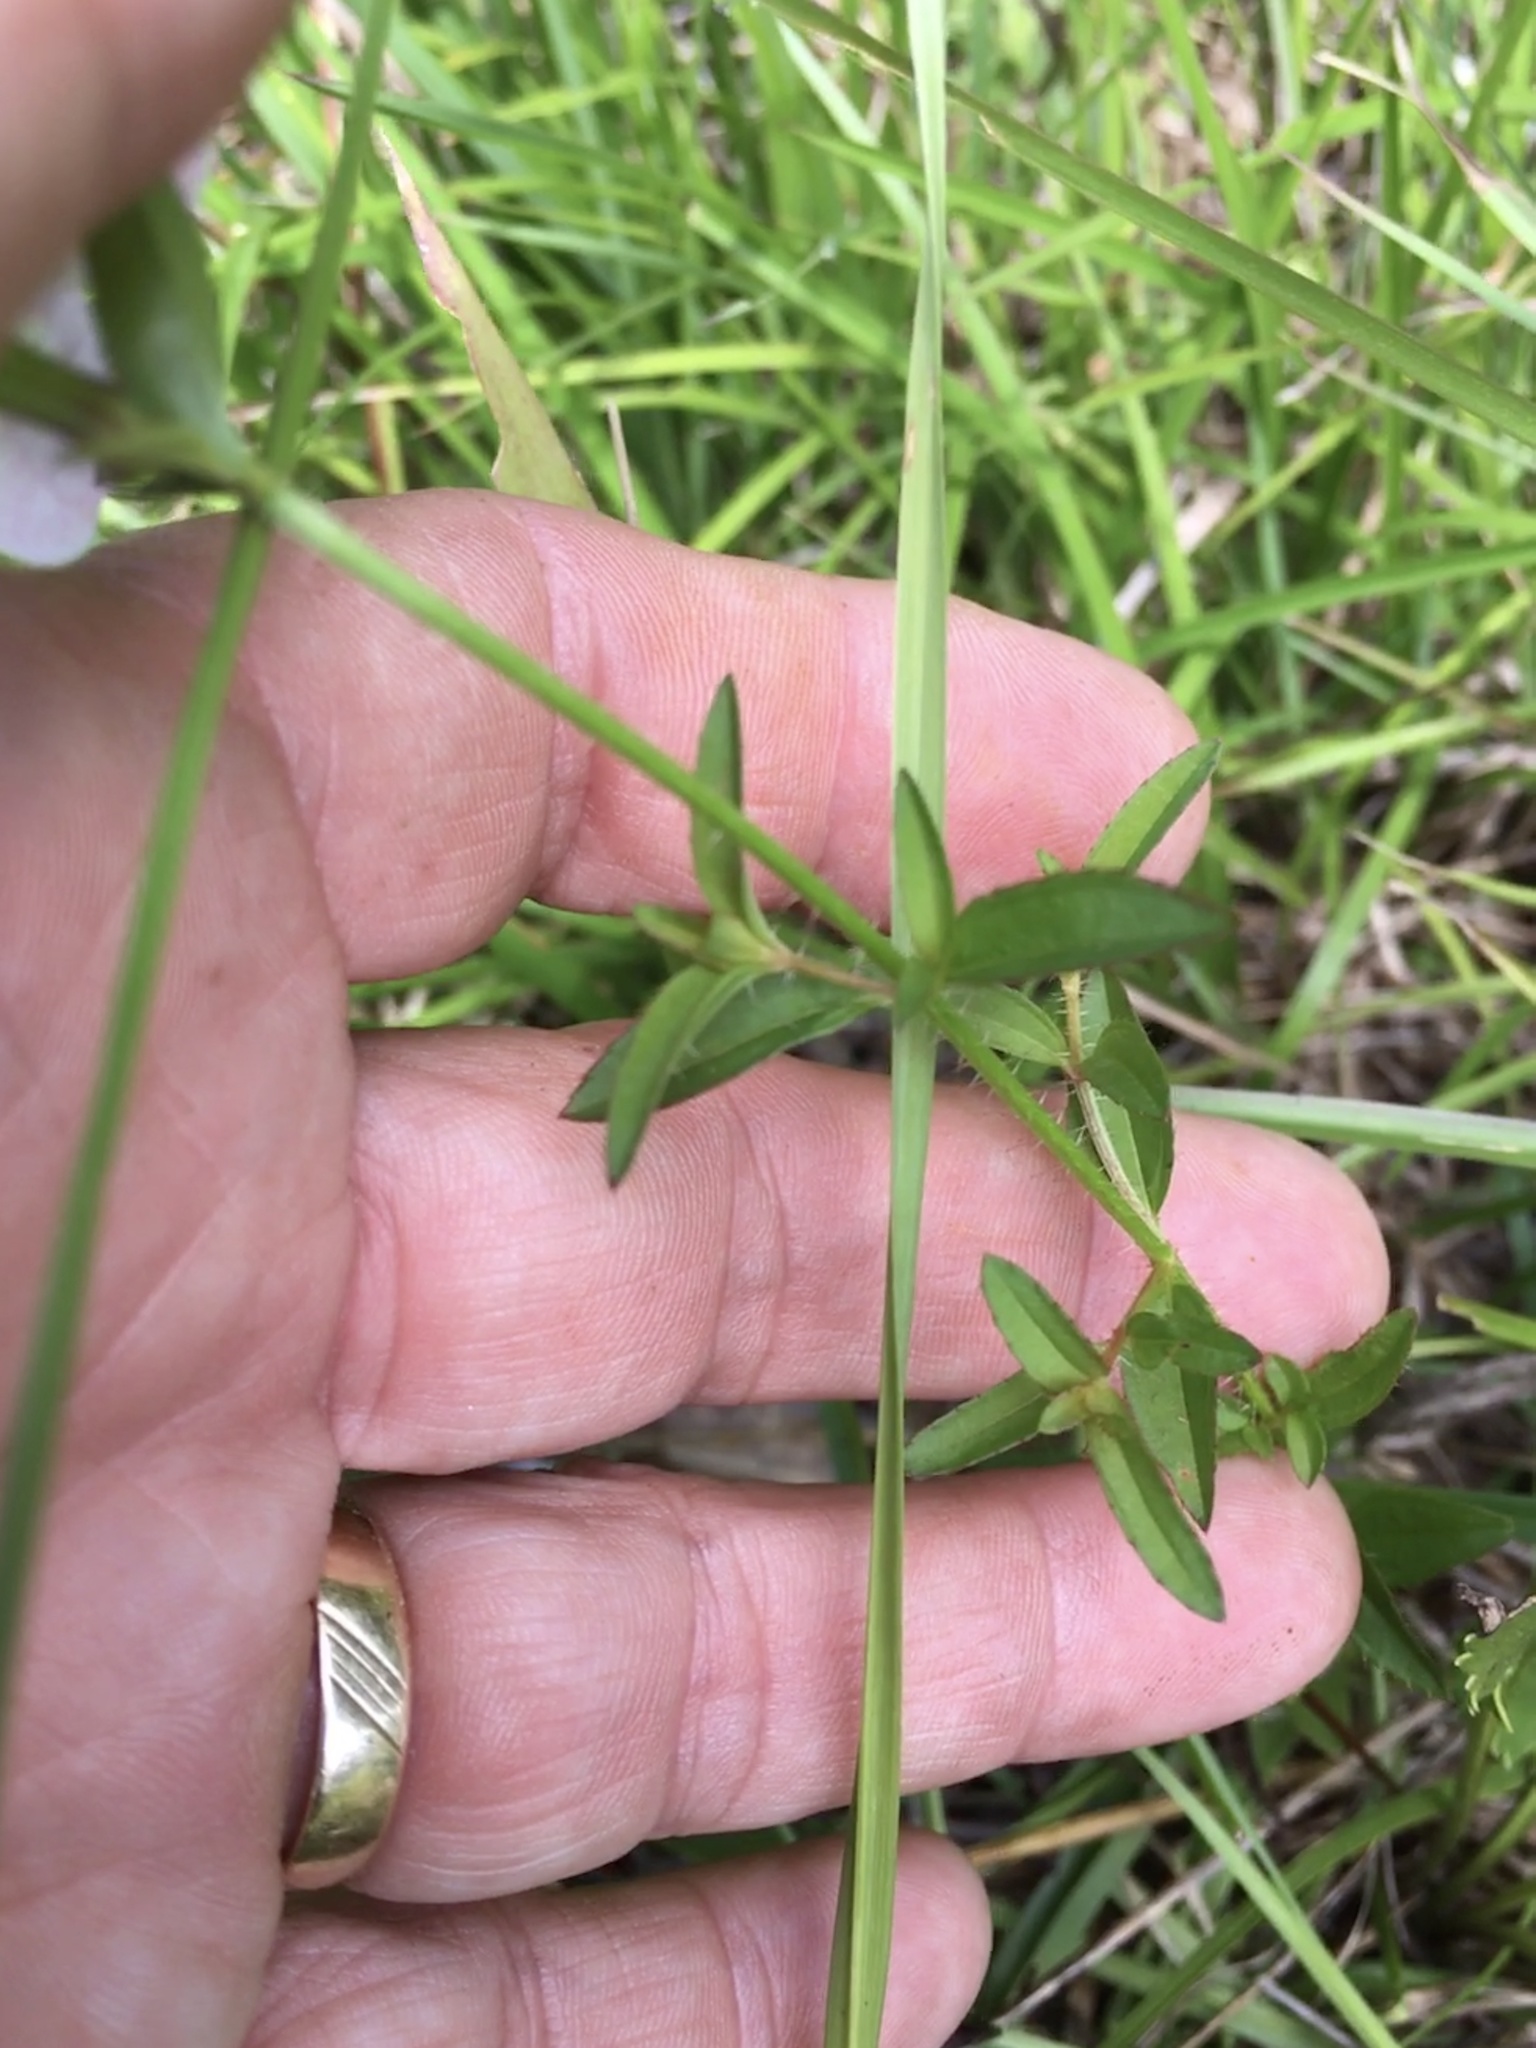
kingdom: Plantae
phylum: Tracheophyta
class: Magnoliopsida
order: Myrtales
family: Melastomataceae
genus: Rhexia
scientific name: Rhexia mariana
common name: Dull meadow-pitcher
